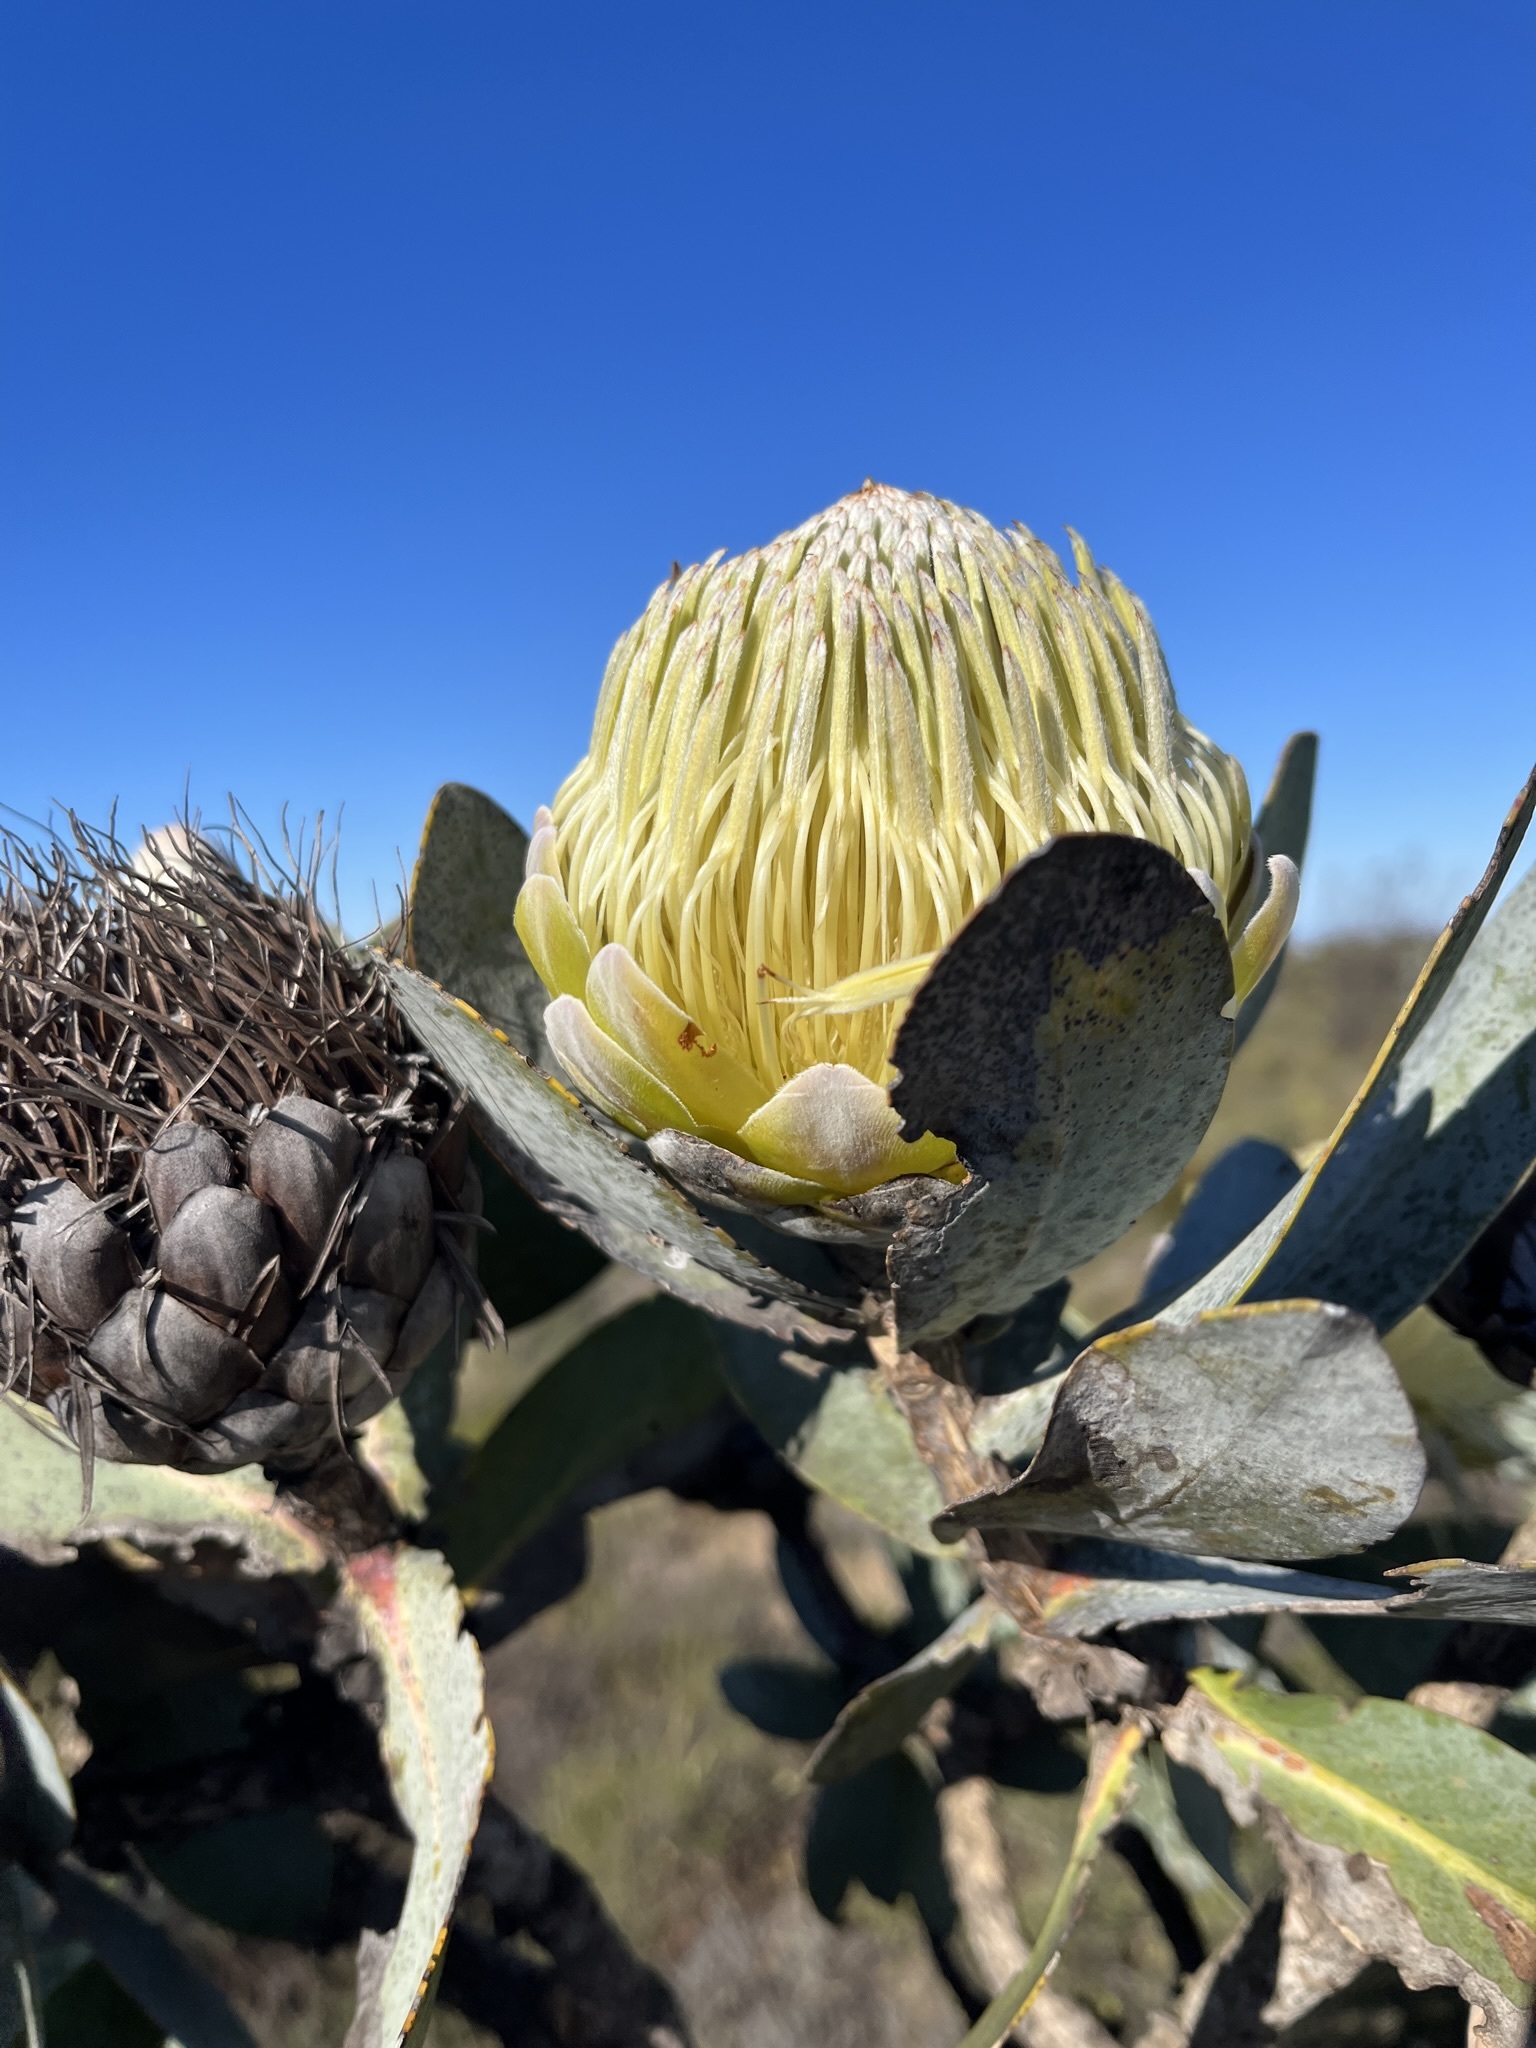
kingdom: Plantae
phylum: Tracheophyta
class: Magnoliopsida
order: Proteales
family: Proteaceae
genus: Protea
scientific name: Protea nitida
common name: Tree protea
